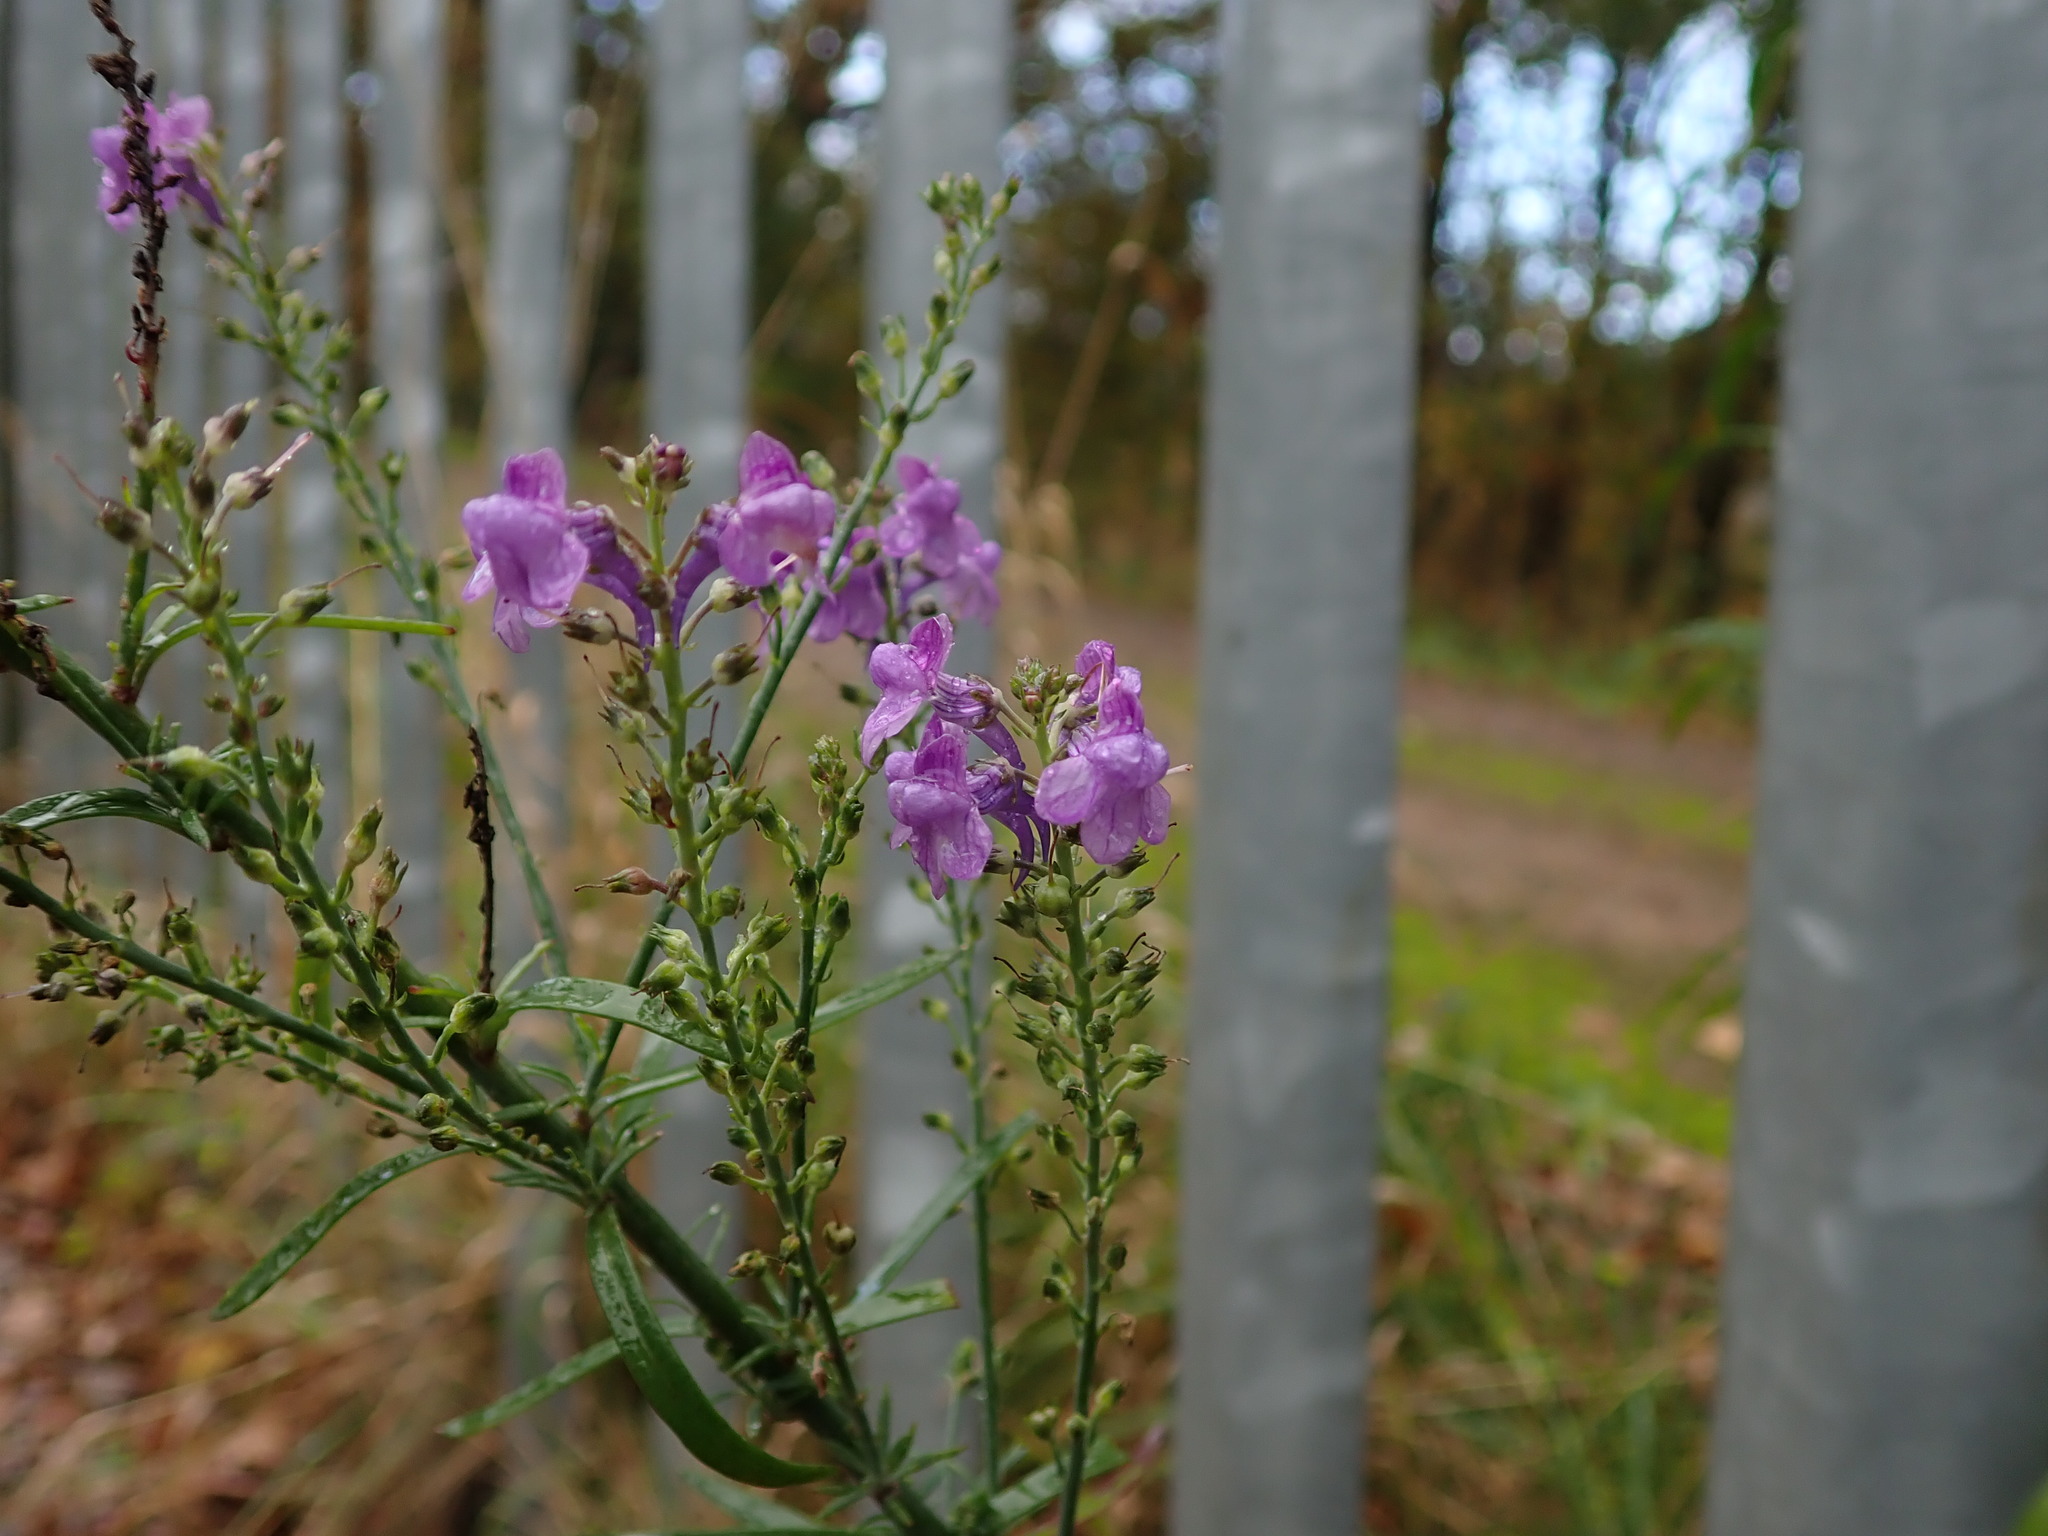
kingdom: Plantae
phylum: Tracheophyta
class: Magnoliopsida
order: Lamiales
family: Plantaginaceae
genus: Linaria
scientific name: Linaria purpurea
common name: Purple toadflax
